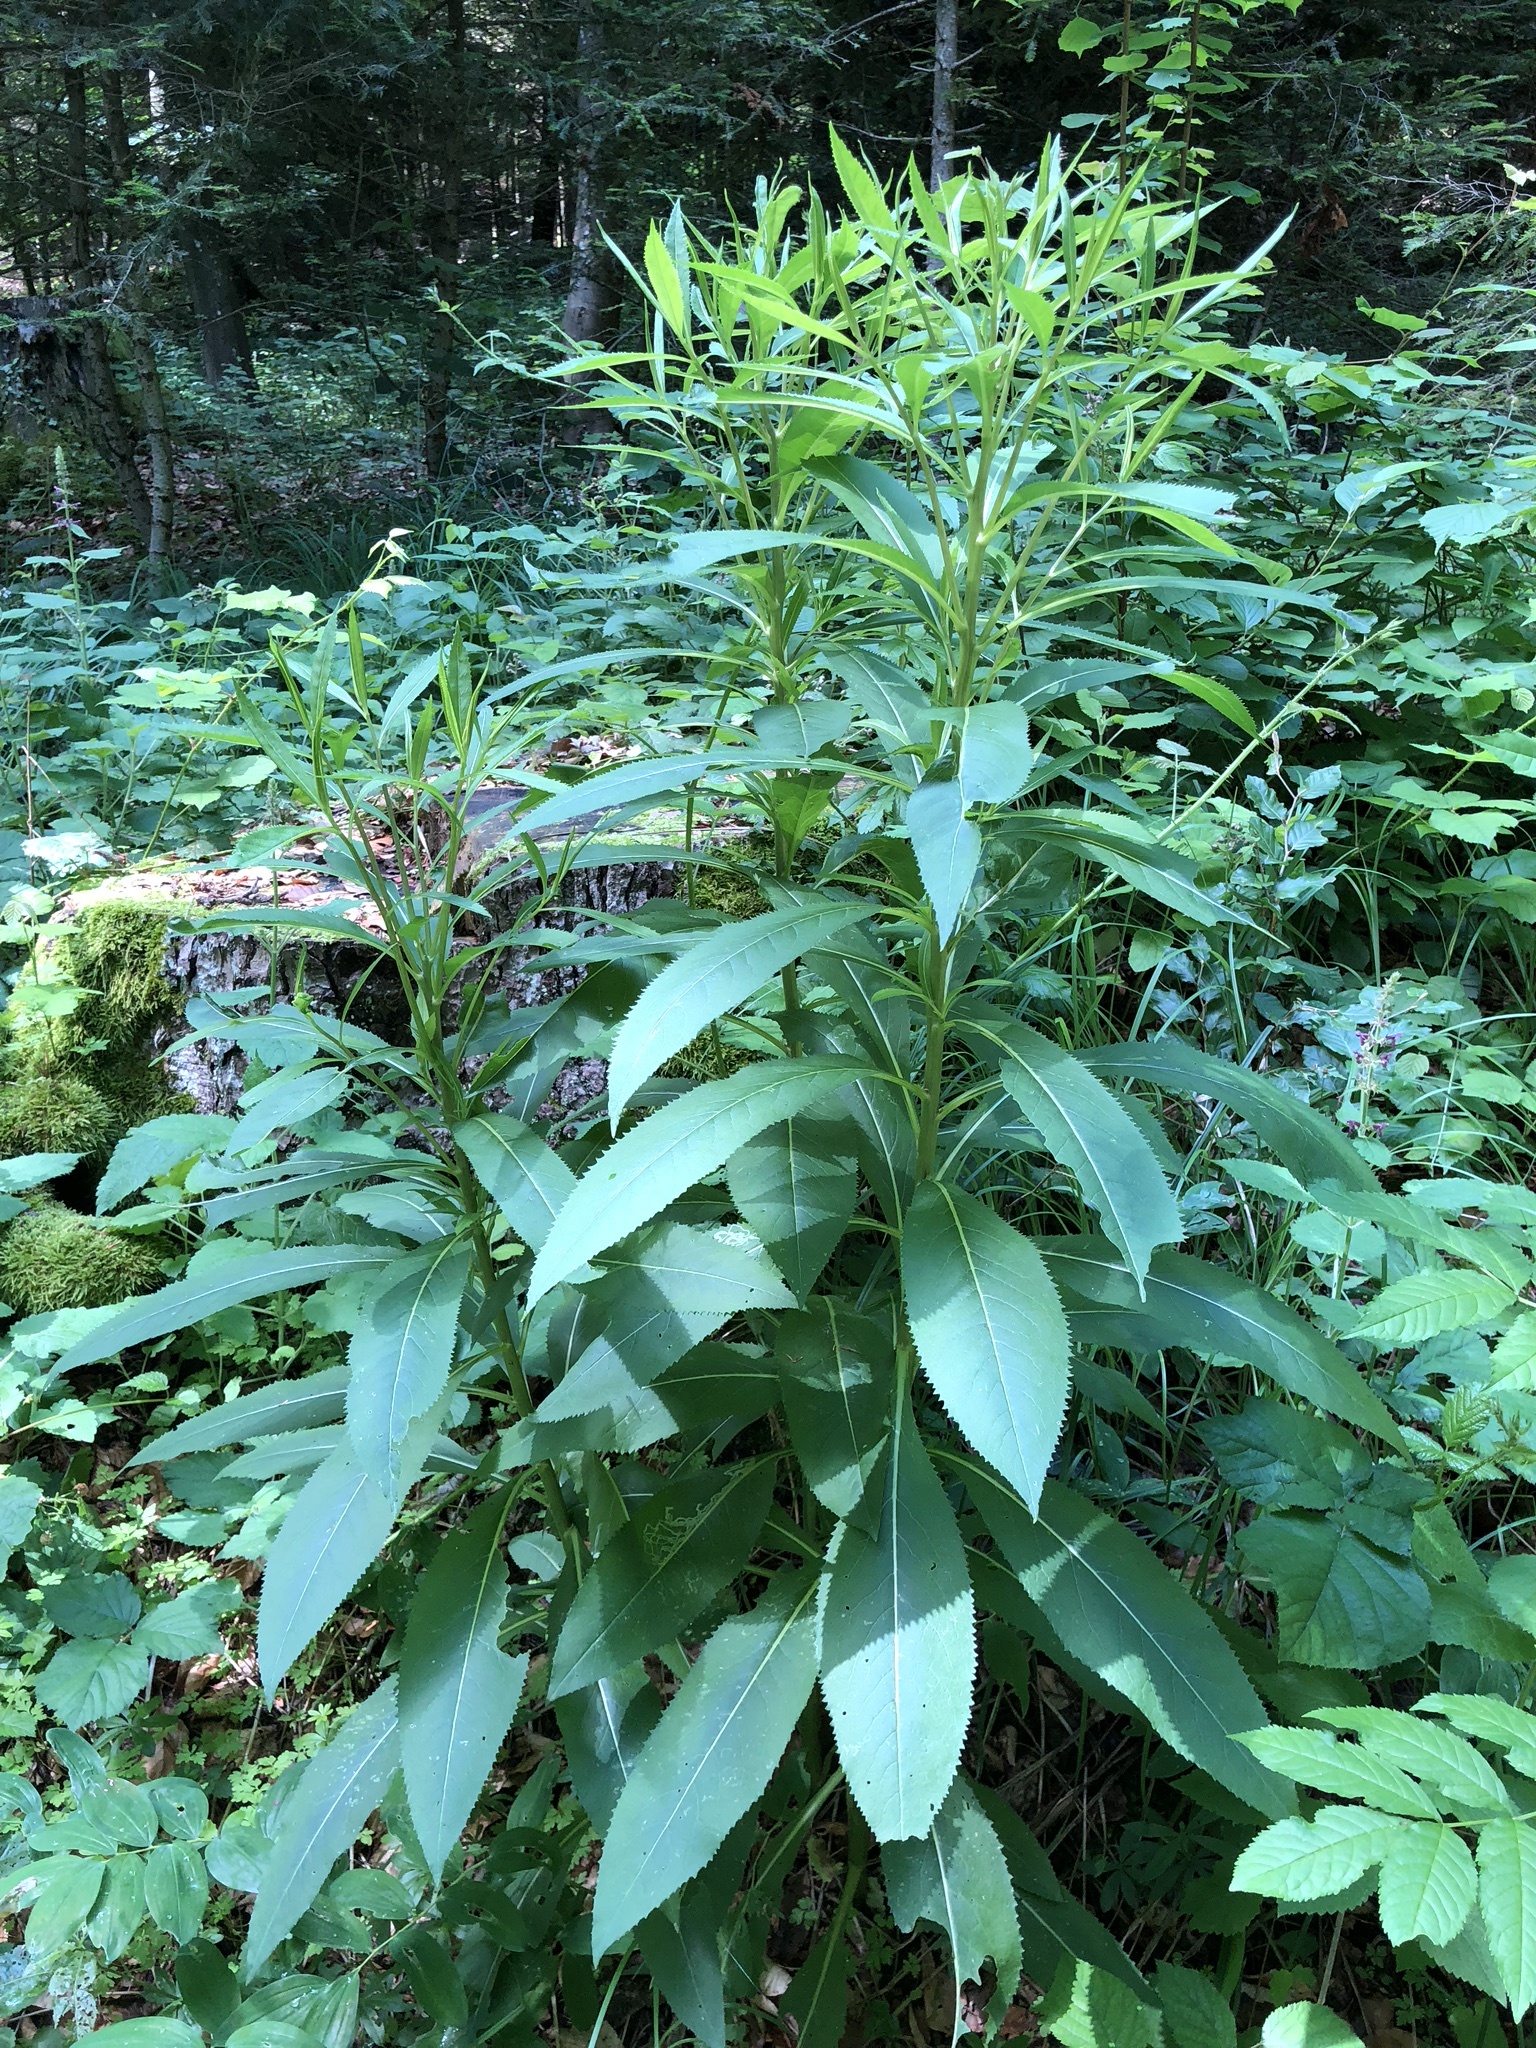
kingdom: Plantae
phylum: Tracheophyta
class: Magnoliopsida
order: Asterales
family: Asteraceae
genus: Senecio
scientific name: Senecio ovatus
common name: Wood ragwort
